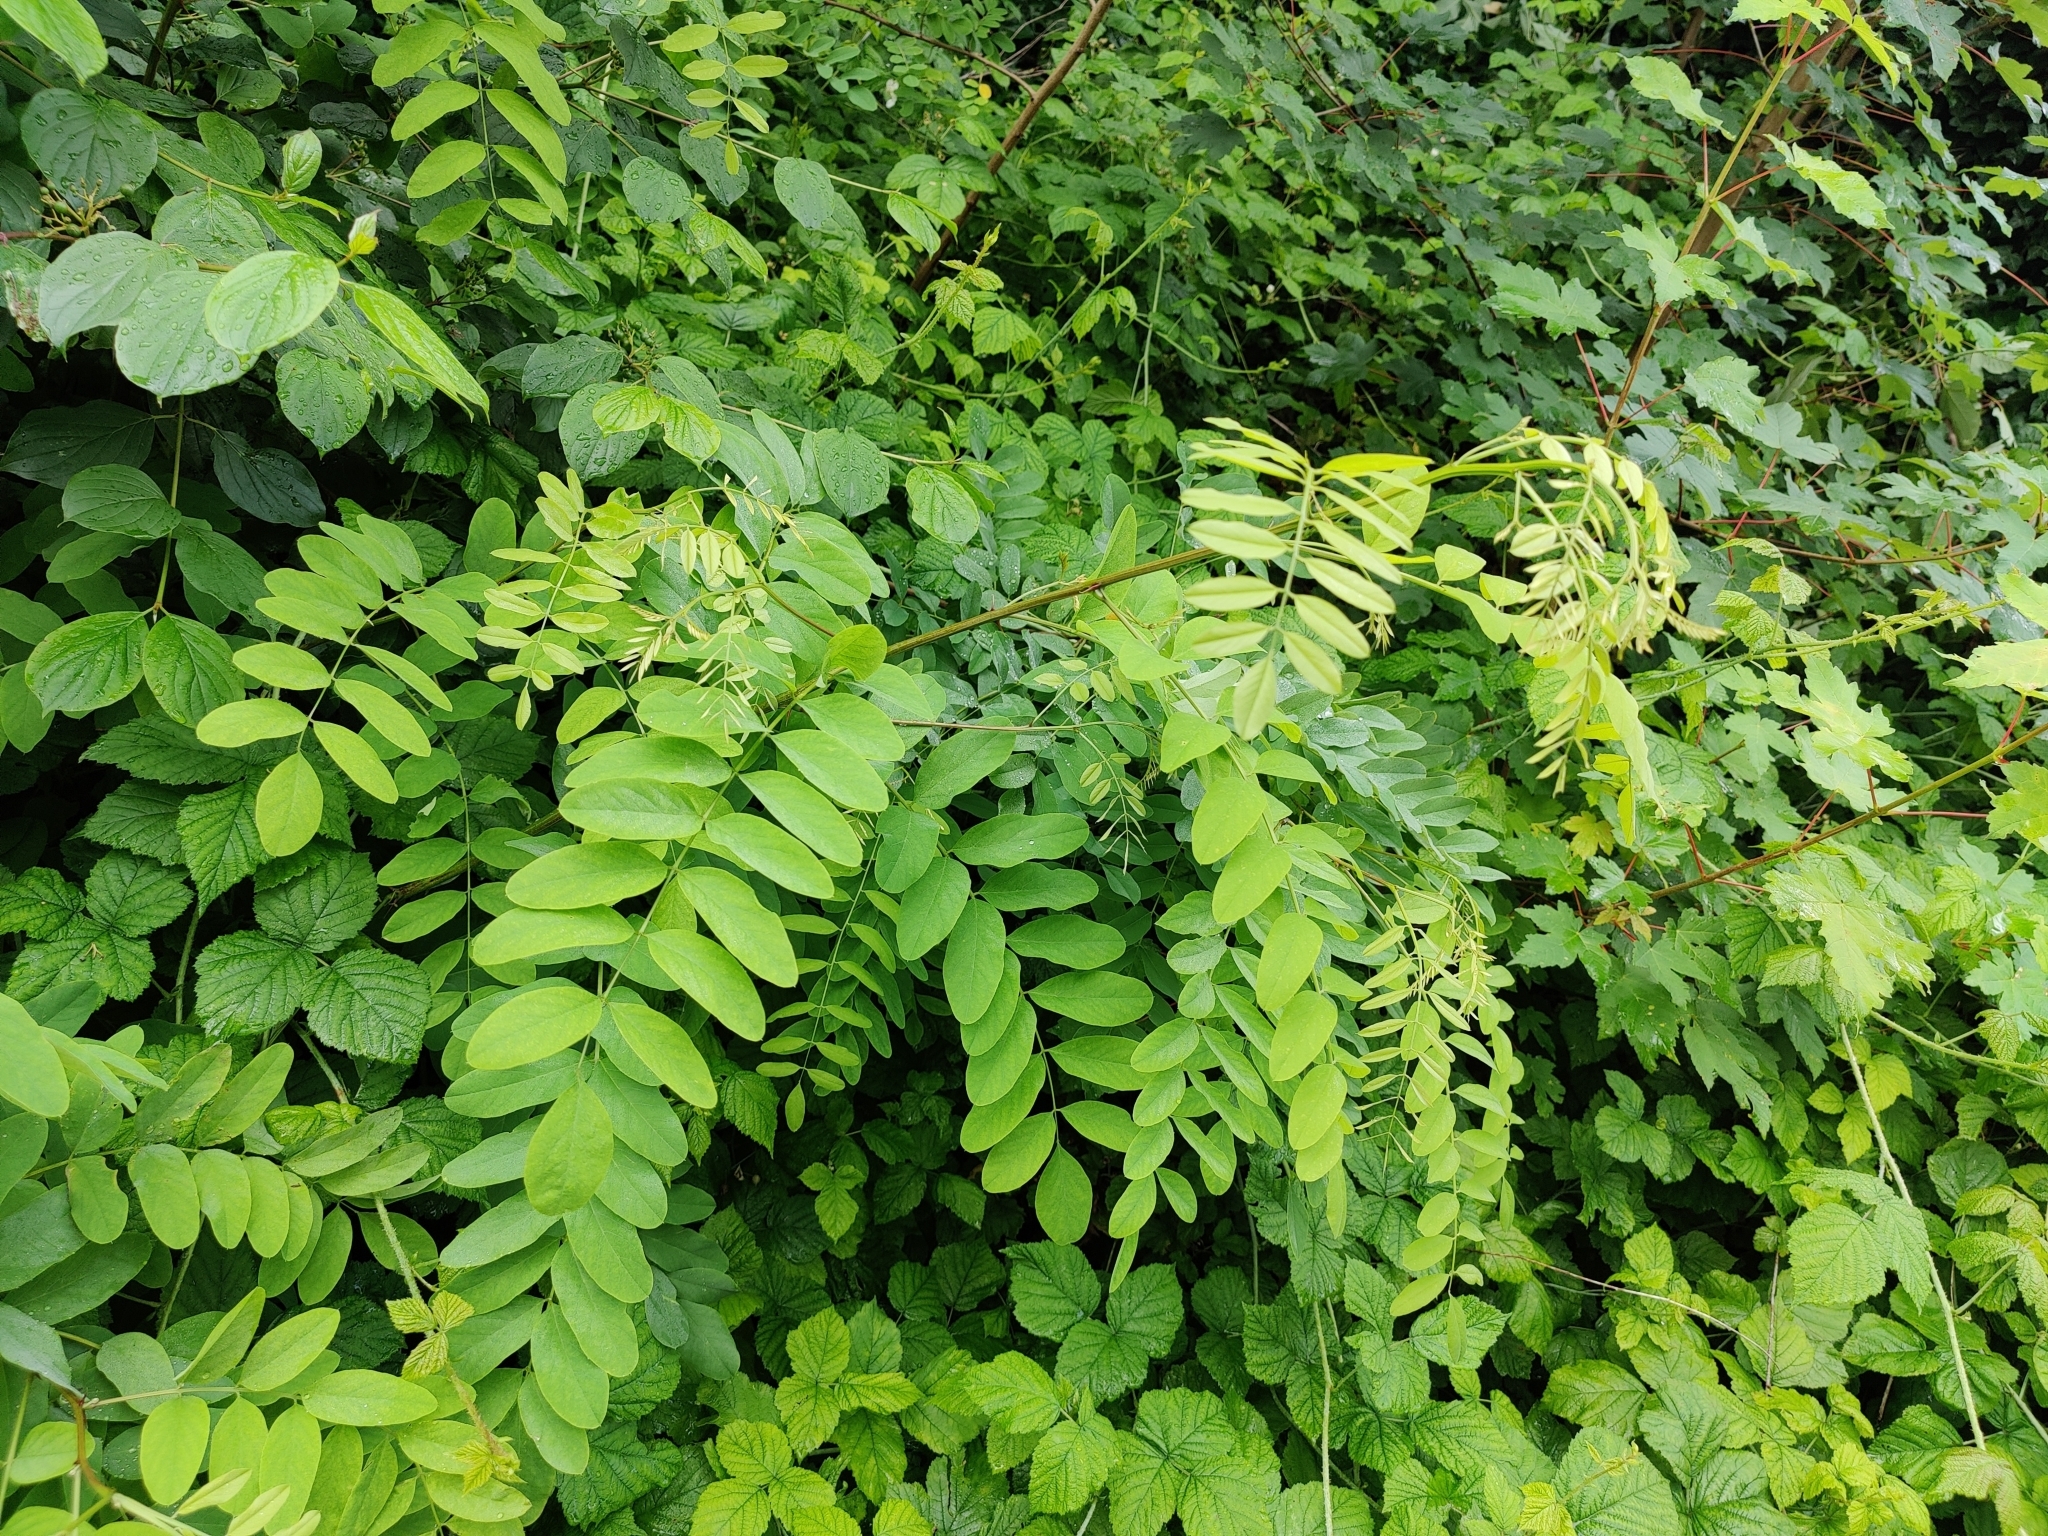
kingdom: Plantae
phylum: Tracheophyta
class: Magnoliopsida
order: Fabales
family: Fabaceae
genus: Robinia
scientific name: Robinia pseudoacacia
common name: Black locust
